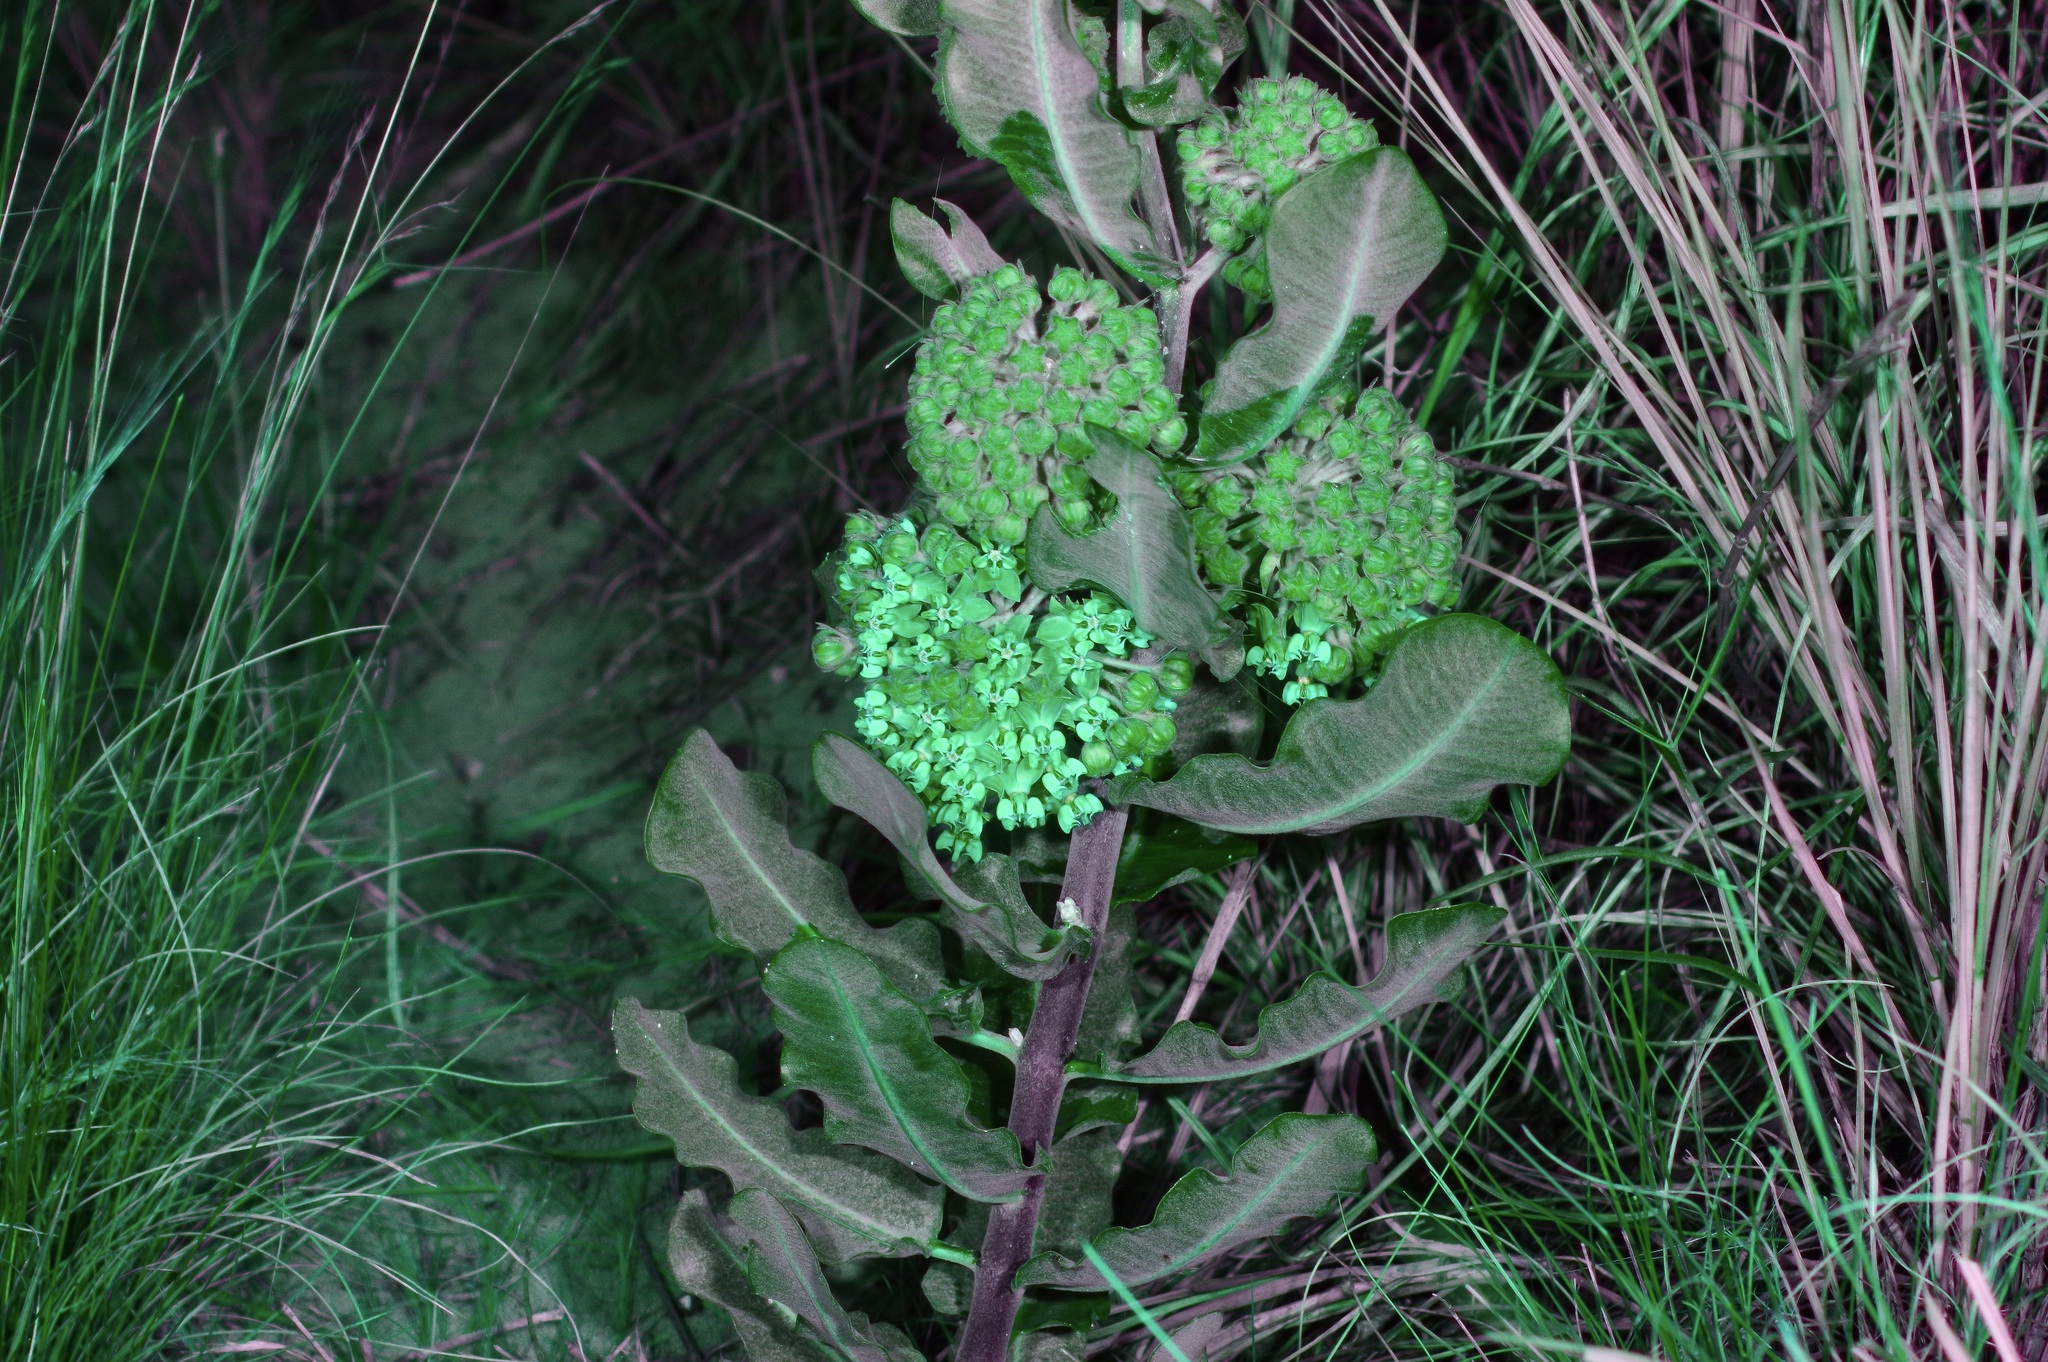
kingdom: Plantae
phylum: Tracheophyta
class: Magnoliopsida
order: Gentianales
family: Apocynaceae
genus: Asclepias
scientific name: Asclepias arenaria
